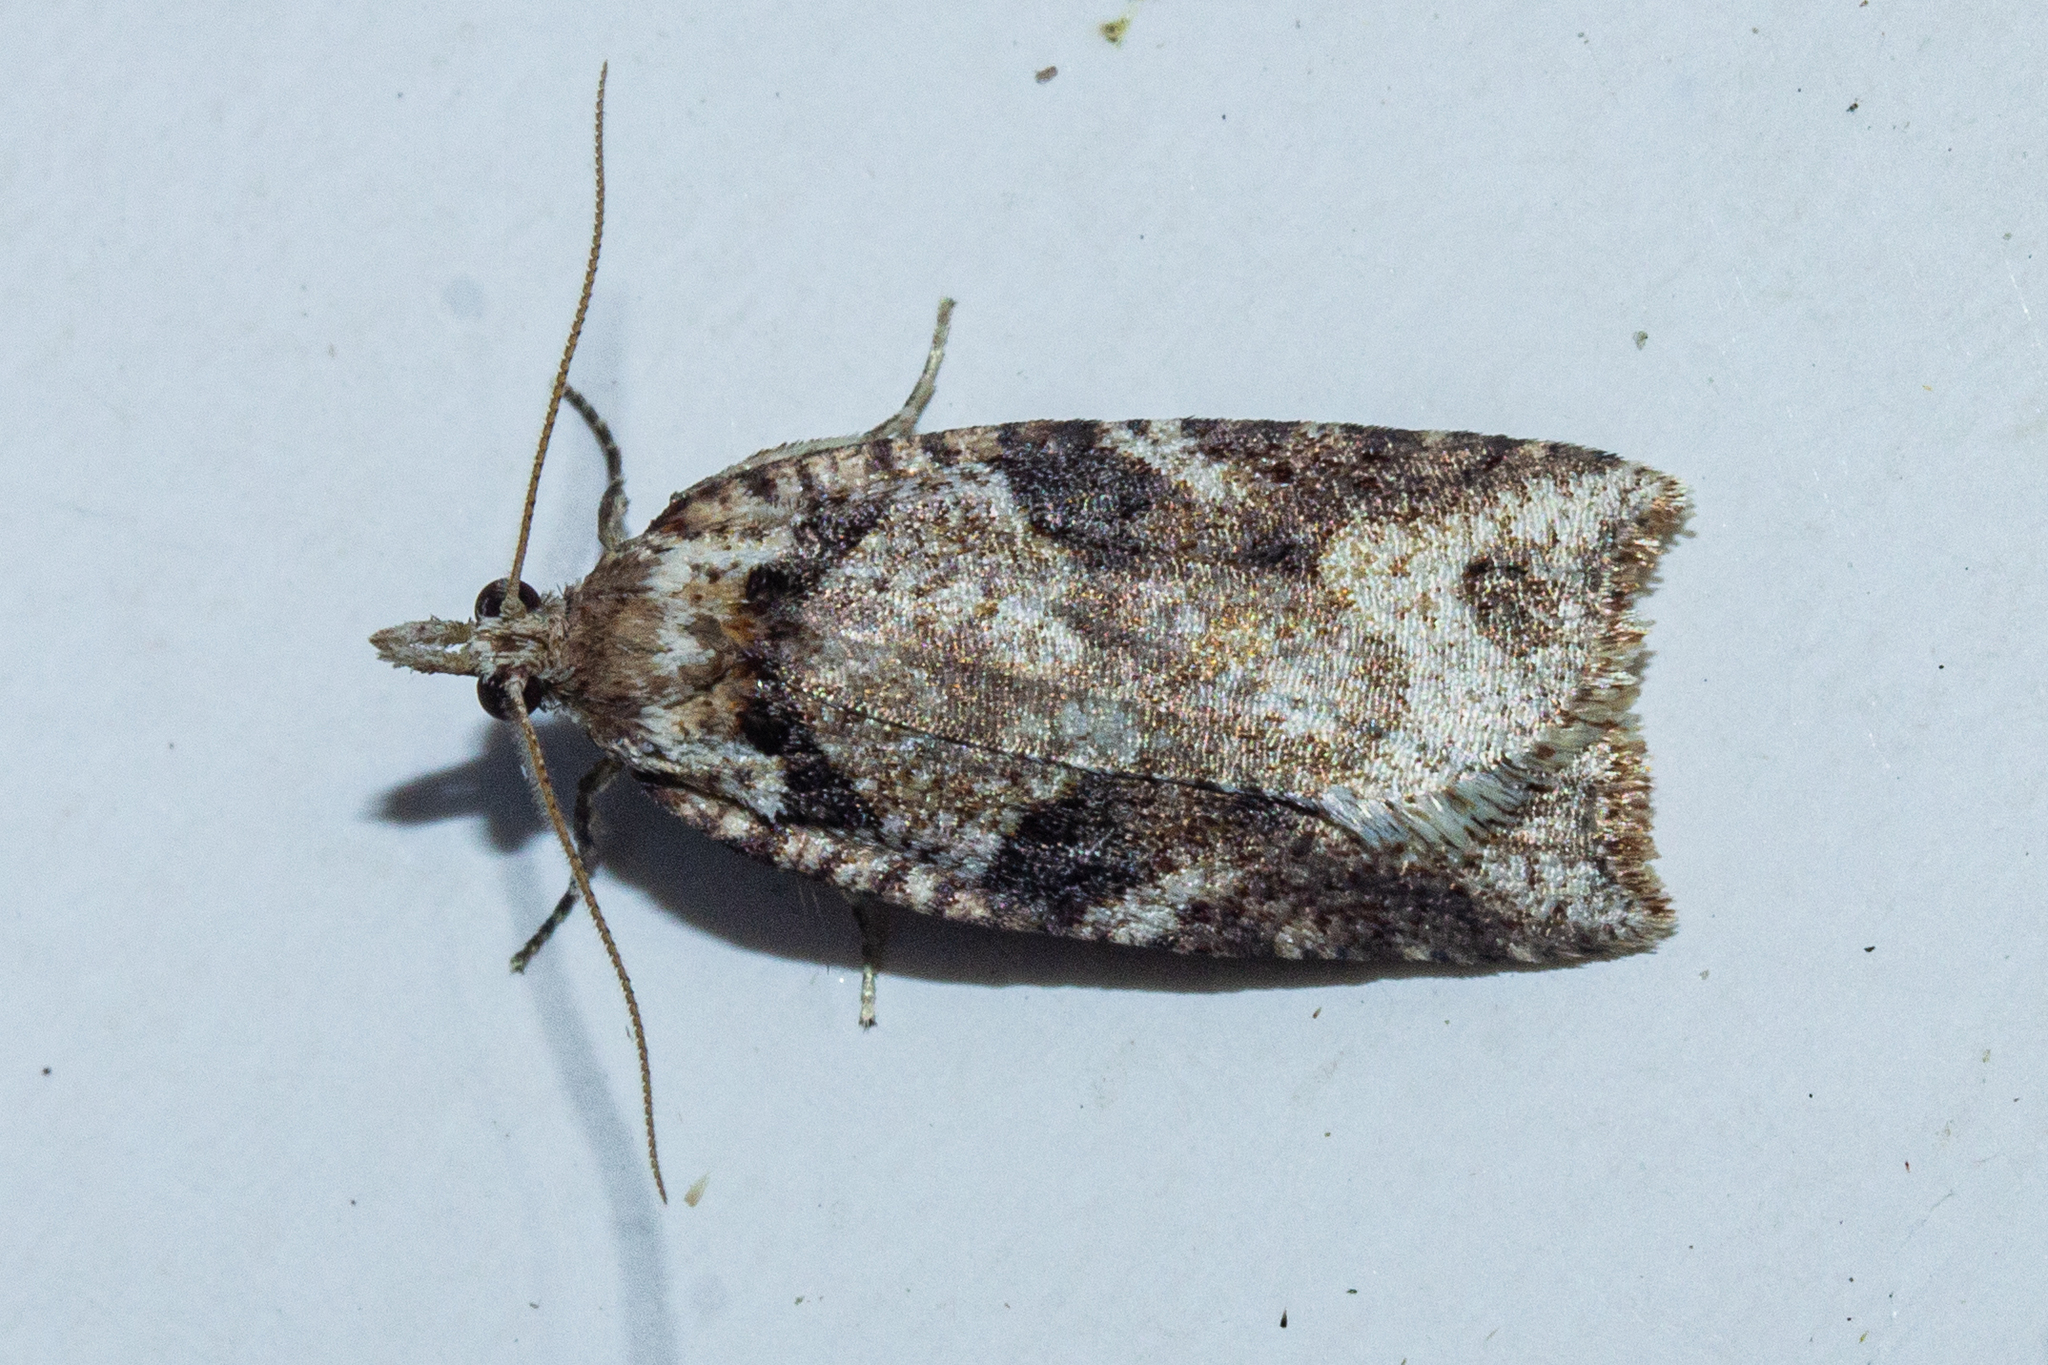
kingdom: Animalia
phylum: Arthropoda
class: Insecta
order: Lepidoptera
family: Tortricidae
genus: Ctenopseustis
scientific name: Ctenopseustis obliquana
